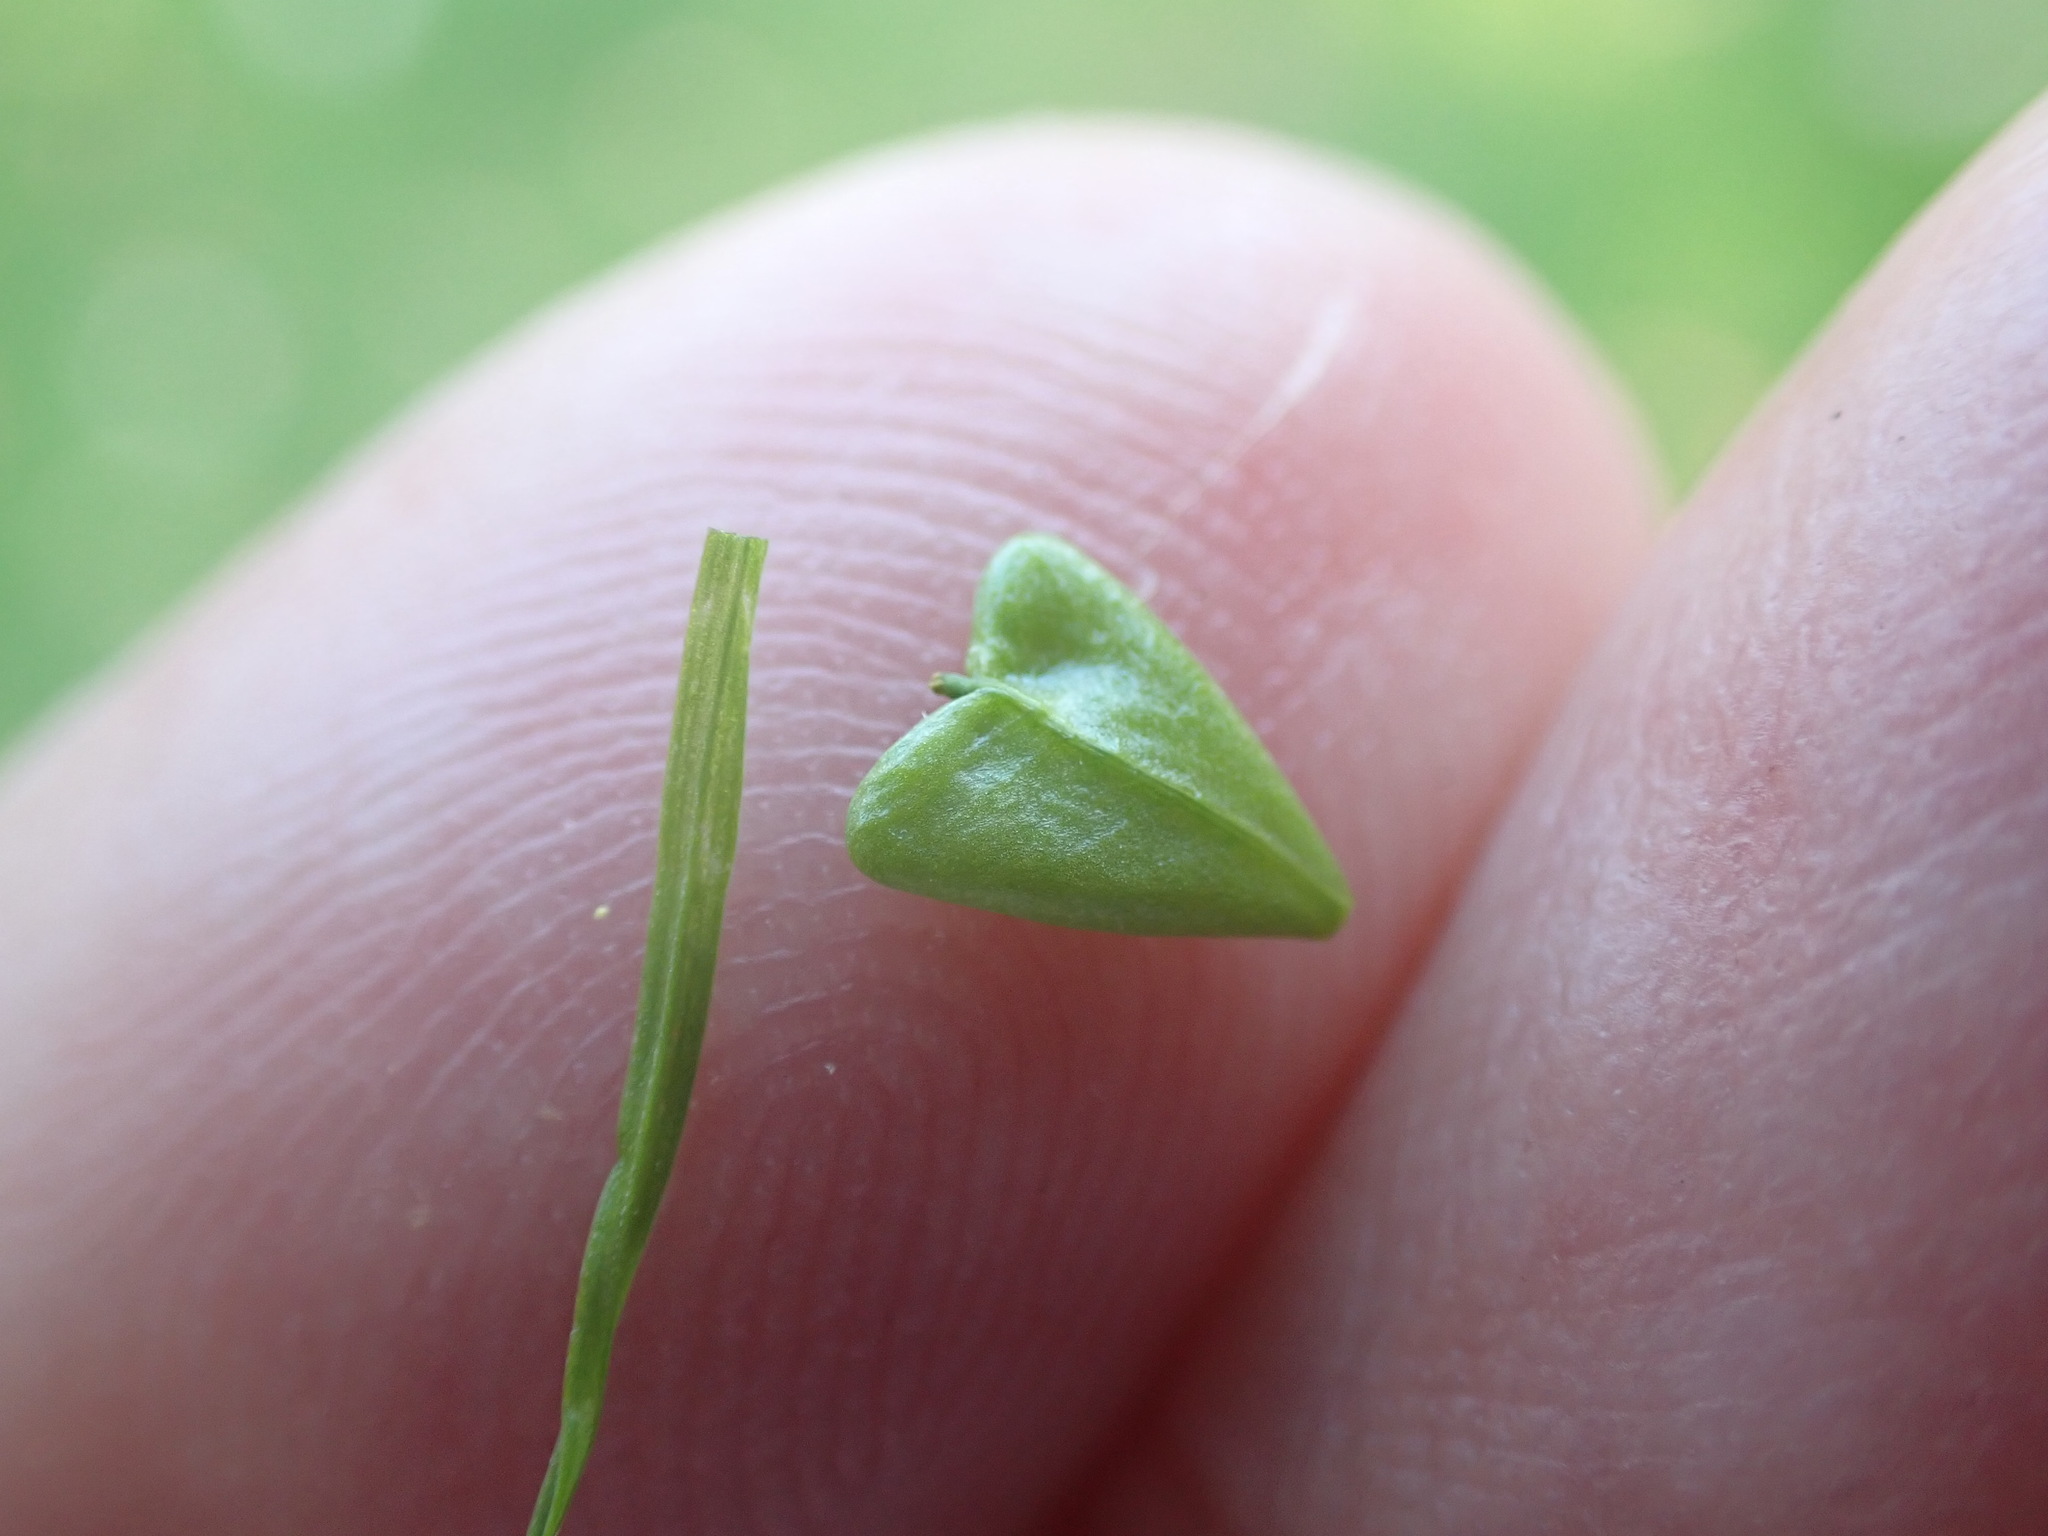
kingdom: Plantae
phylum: Tracheophyta
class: Magnoliopsida
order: Brassicales
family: Brassicaceae
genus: Capsella
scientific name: Capsella bursa-pastoris
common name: Shepherd's purse
